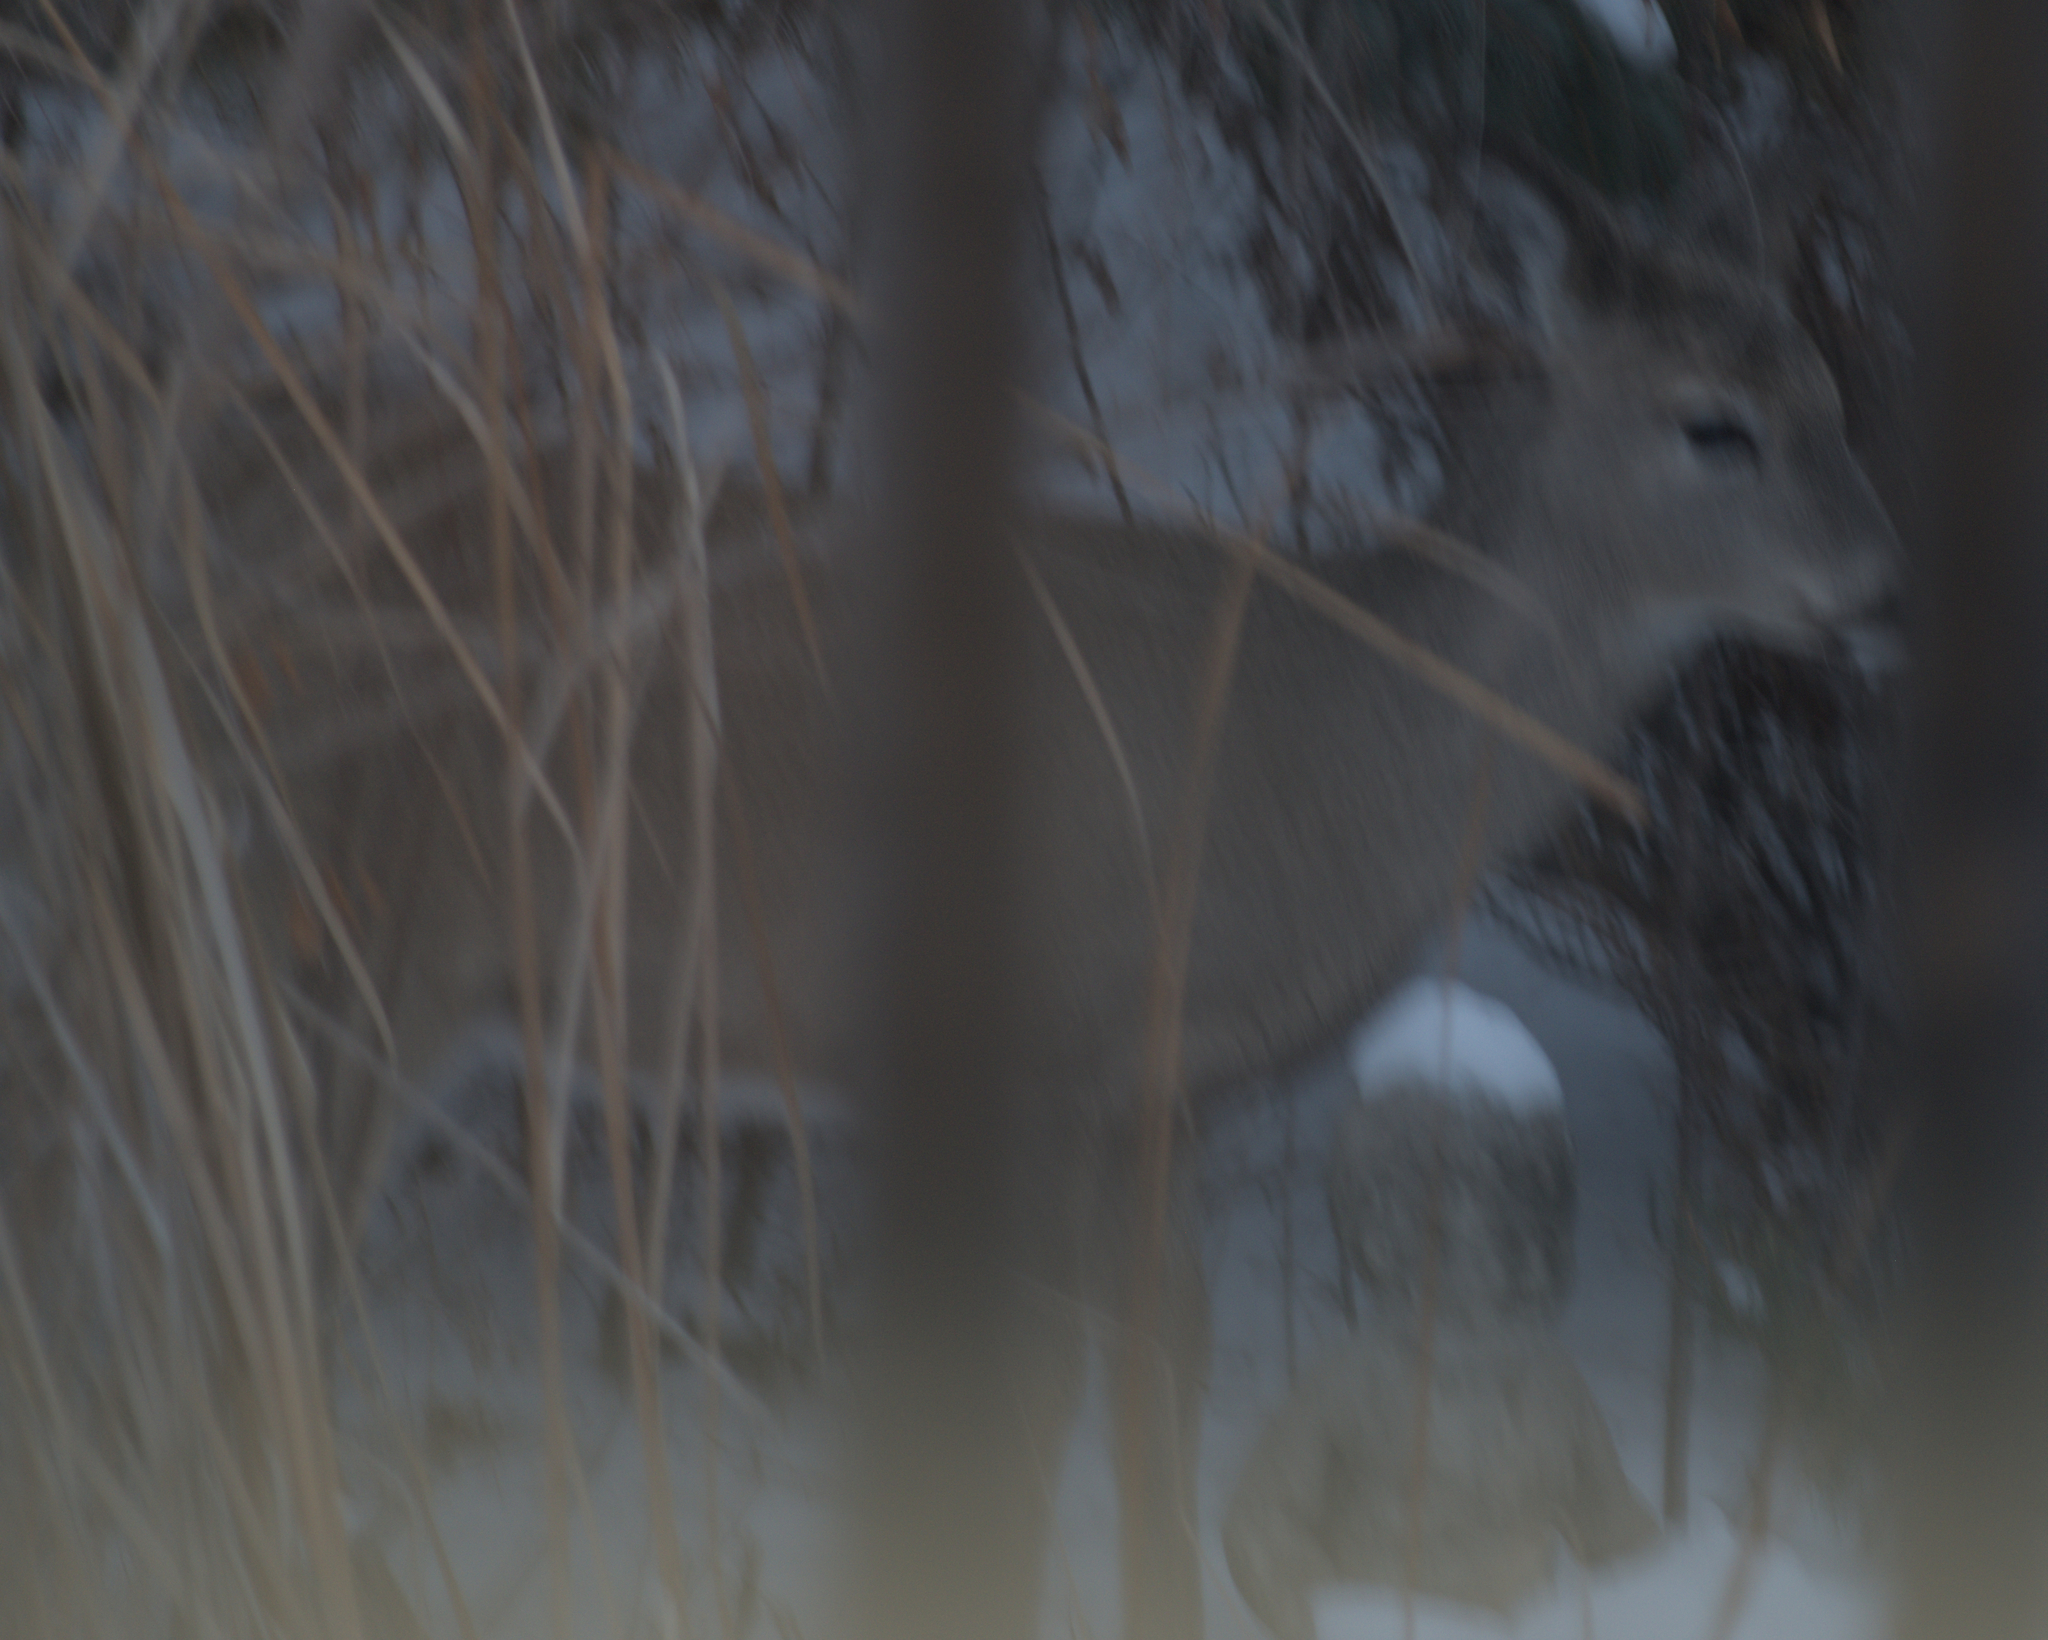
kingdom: Animalia
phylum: Chordata
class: Mammalia
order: Artiodactyla
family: Cervidae
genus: Odocoileus
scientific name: Odocoileus virginianus
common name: White-tailed deer
